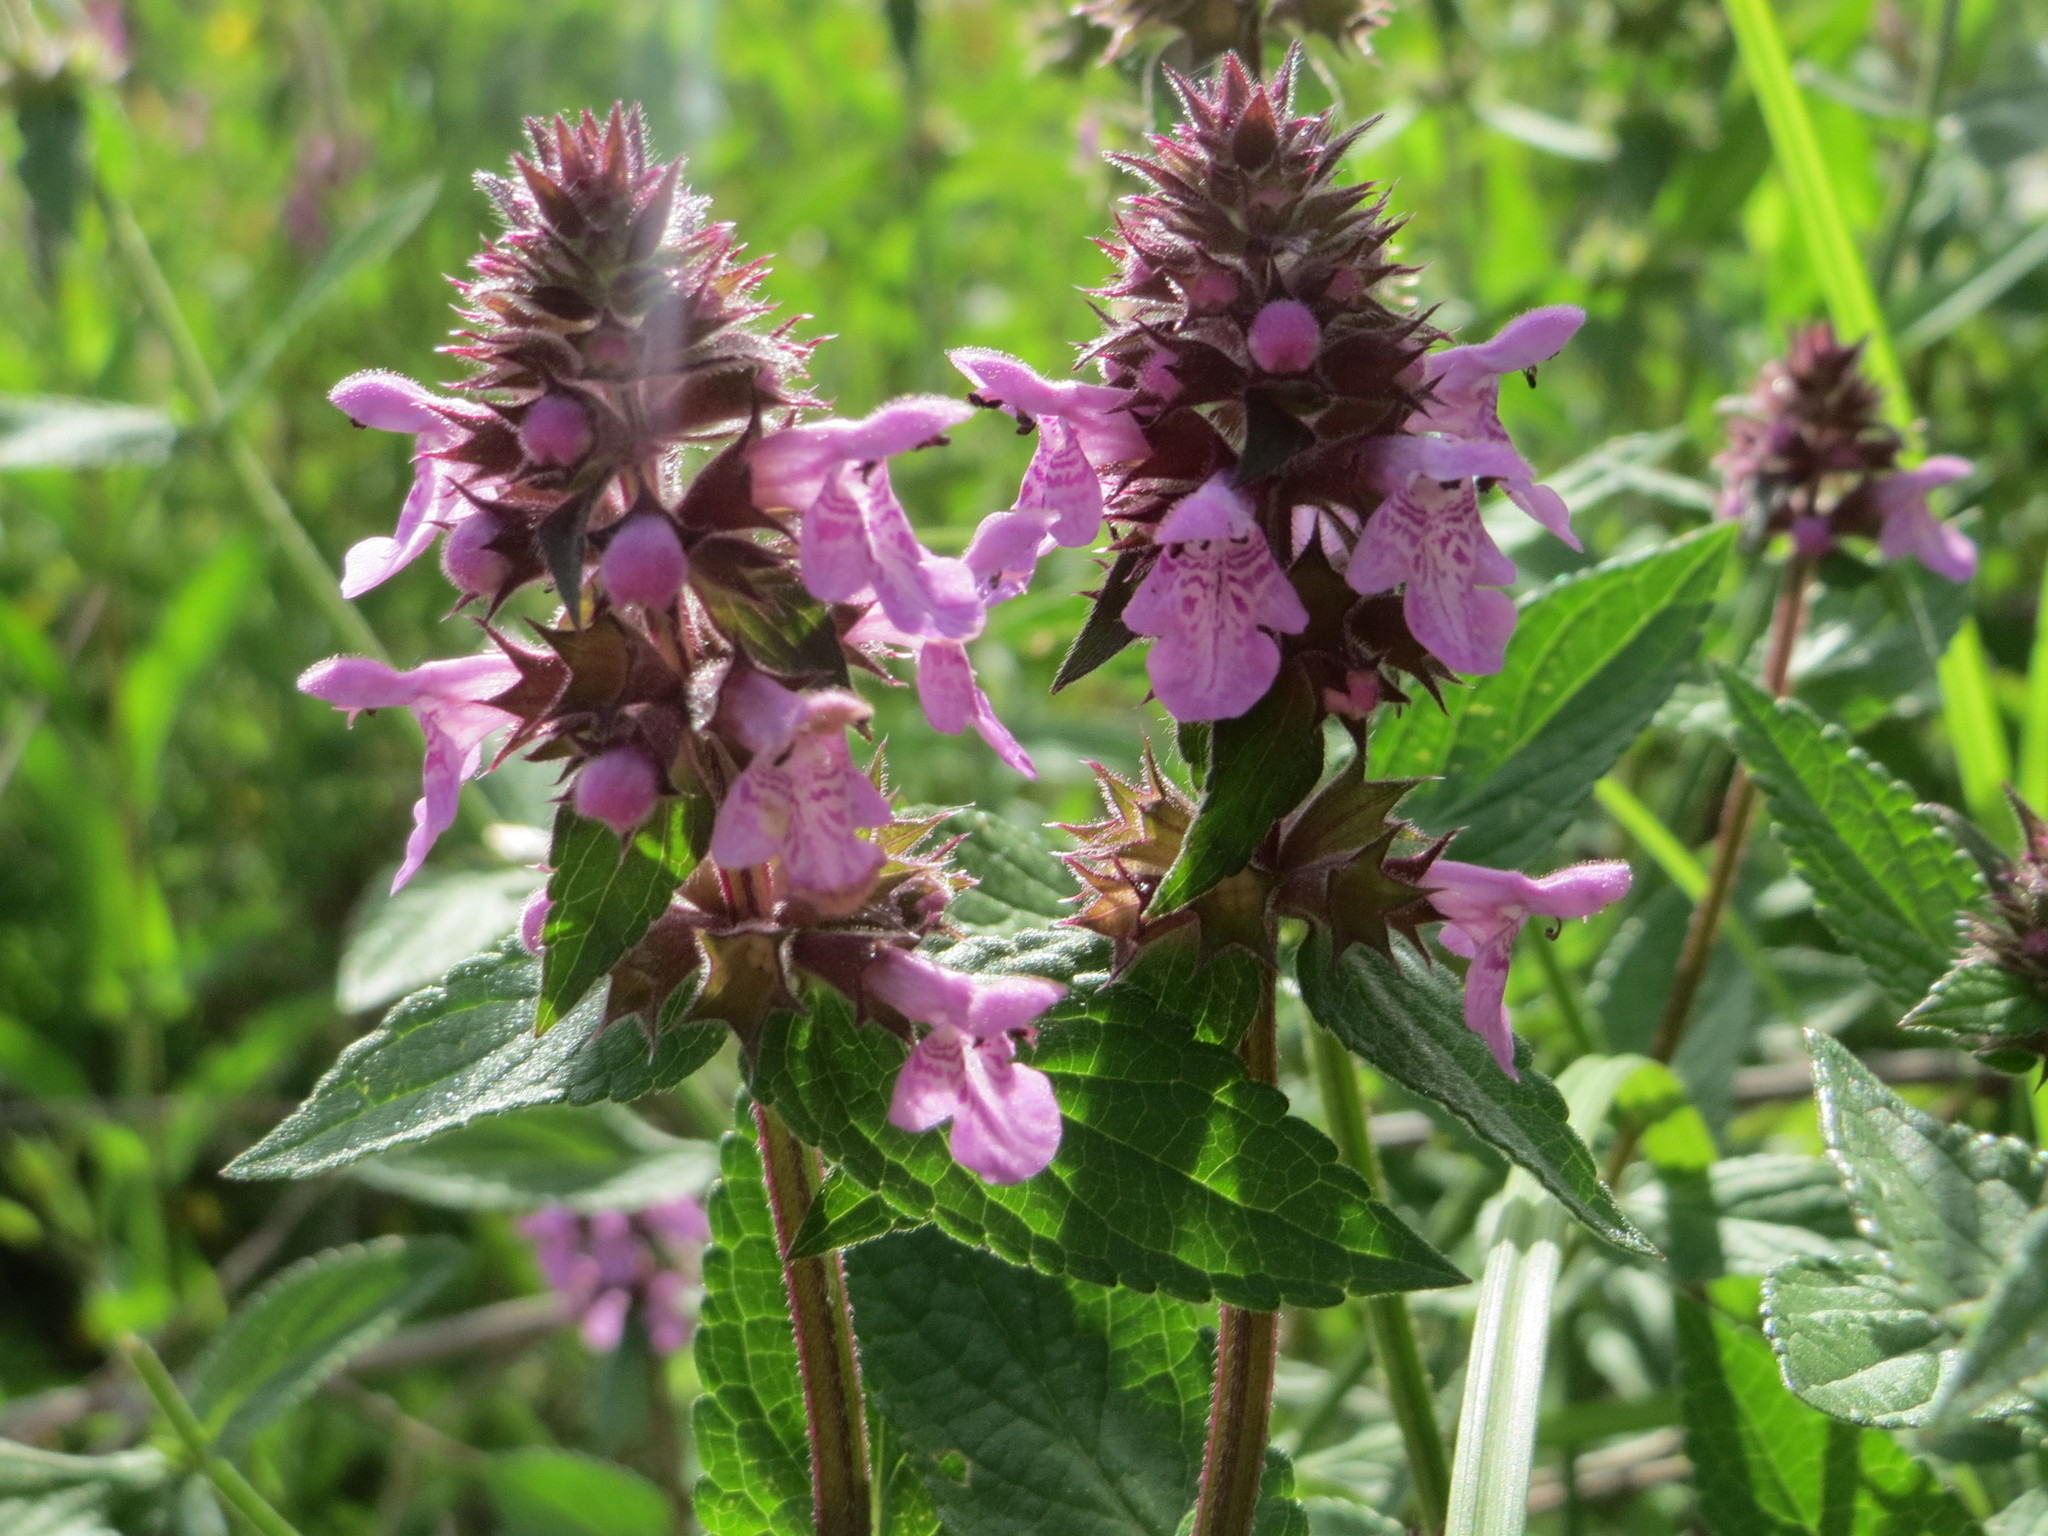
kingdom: Plantae
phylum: Tracheophyta
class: Magnoliopsida
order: Lamiales
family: Lamiaceae
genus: Stachys
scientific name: Stachys palustris
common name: Marsh woundwort
